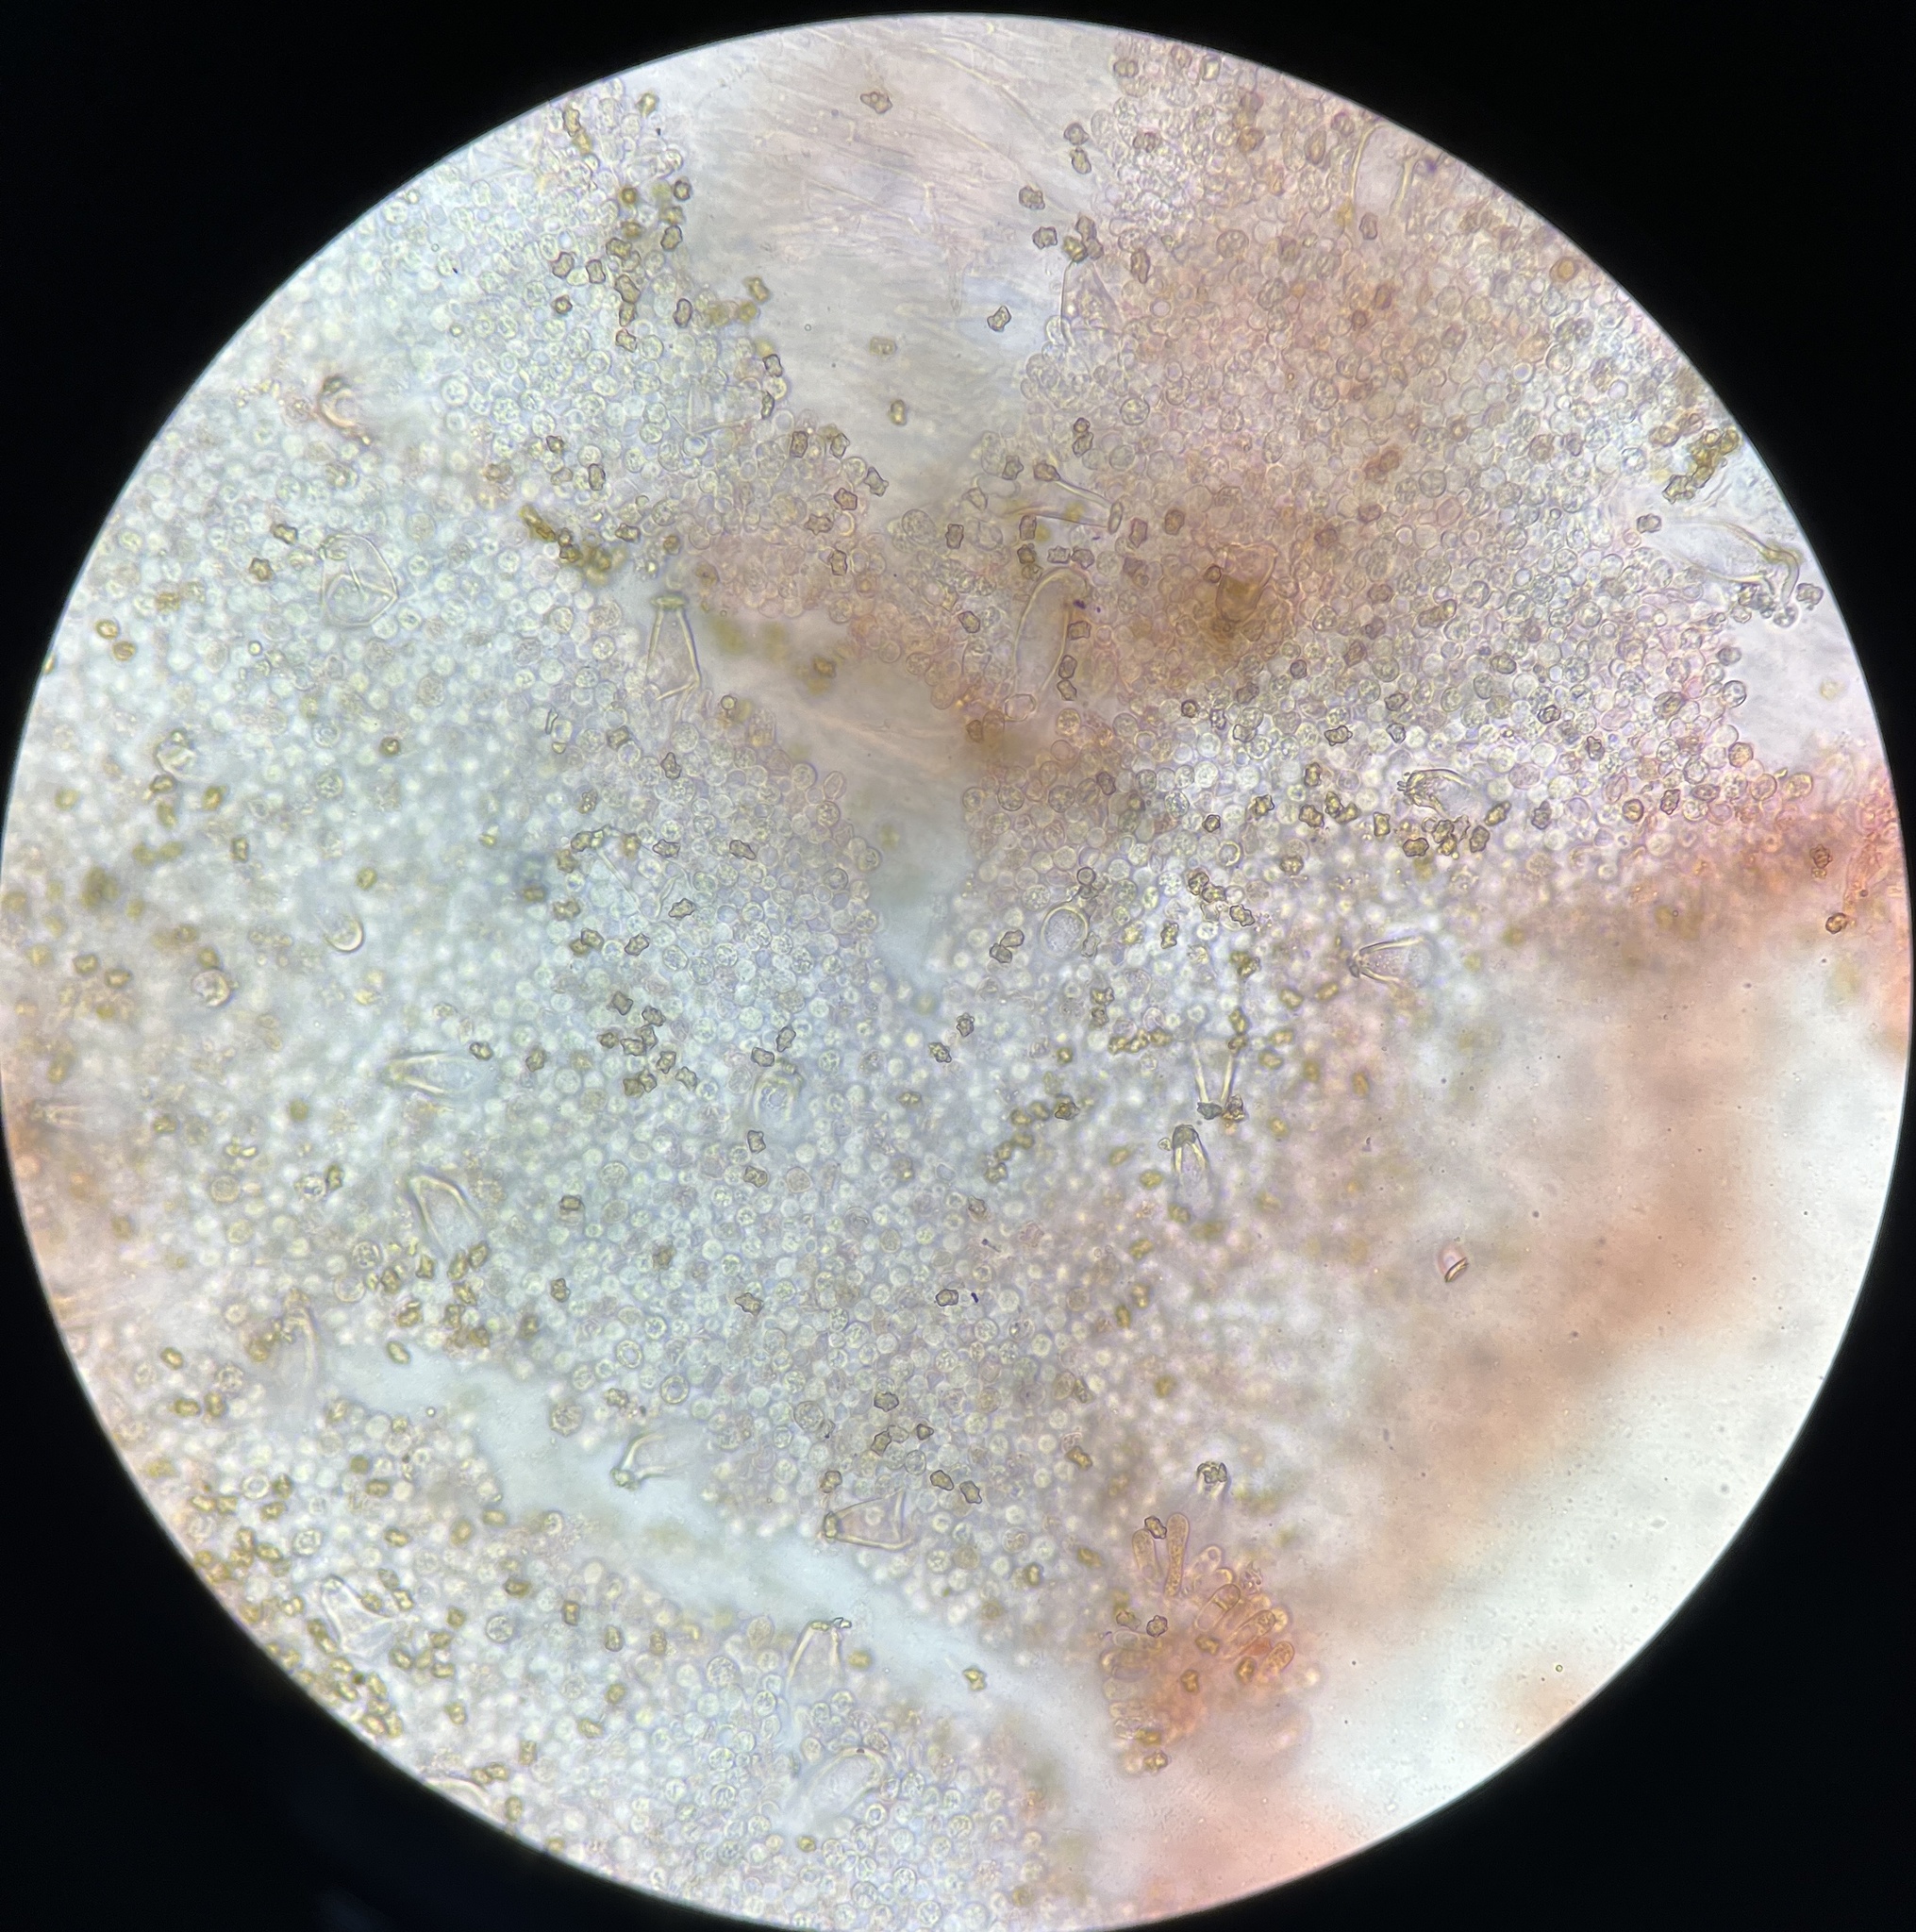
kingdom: Fungi
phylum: Basidiomycota
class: Agaricomycetes
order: Agaricales
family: Inocybaceae
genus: Inocybe
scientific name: Inocybe velicopia
